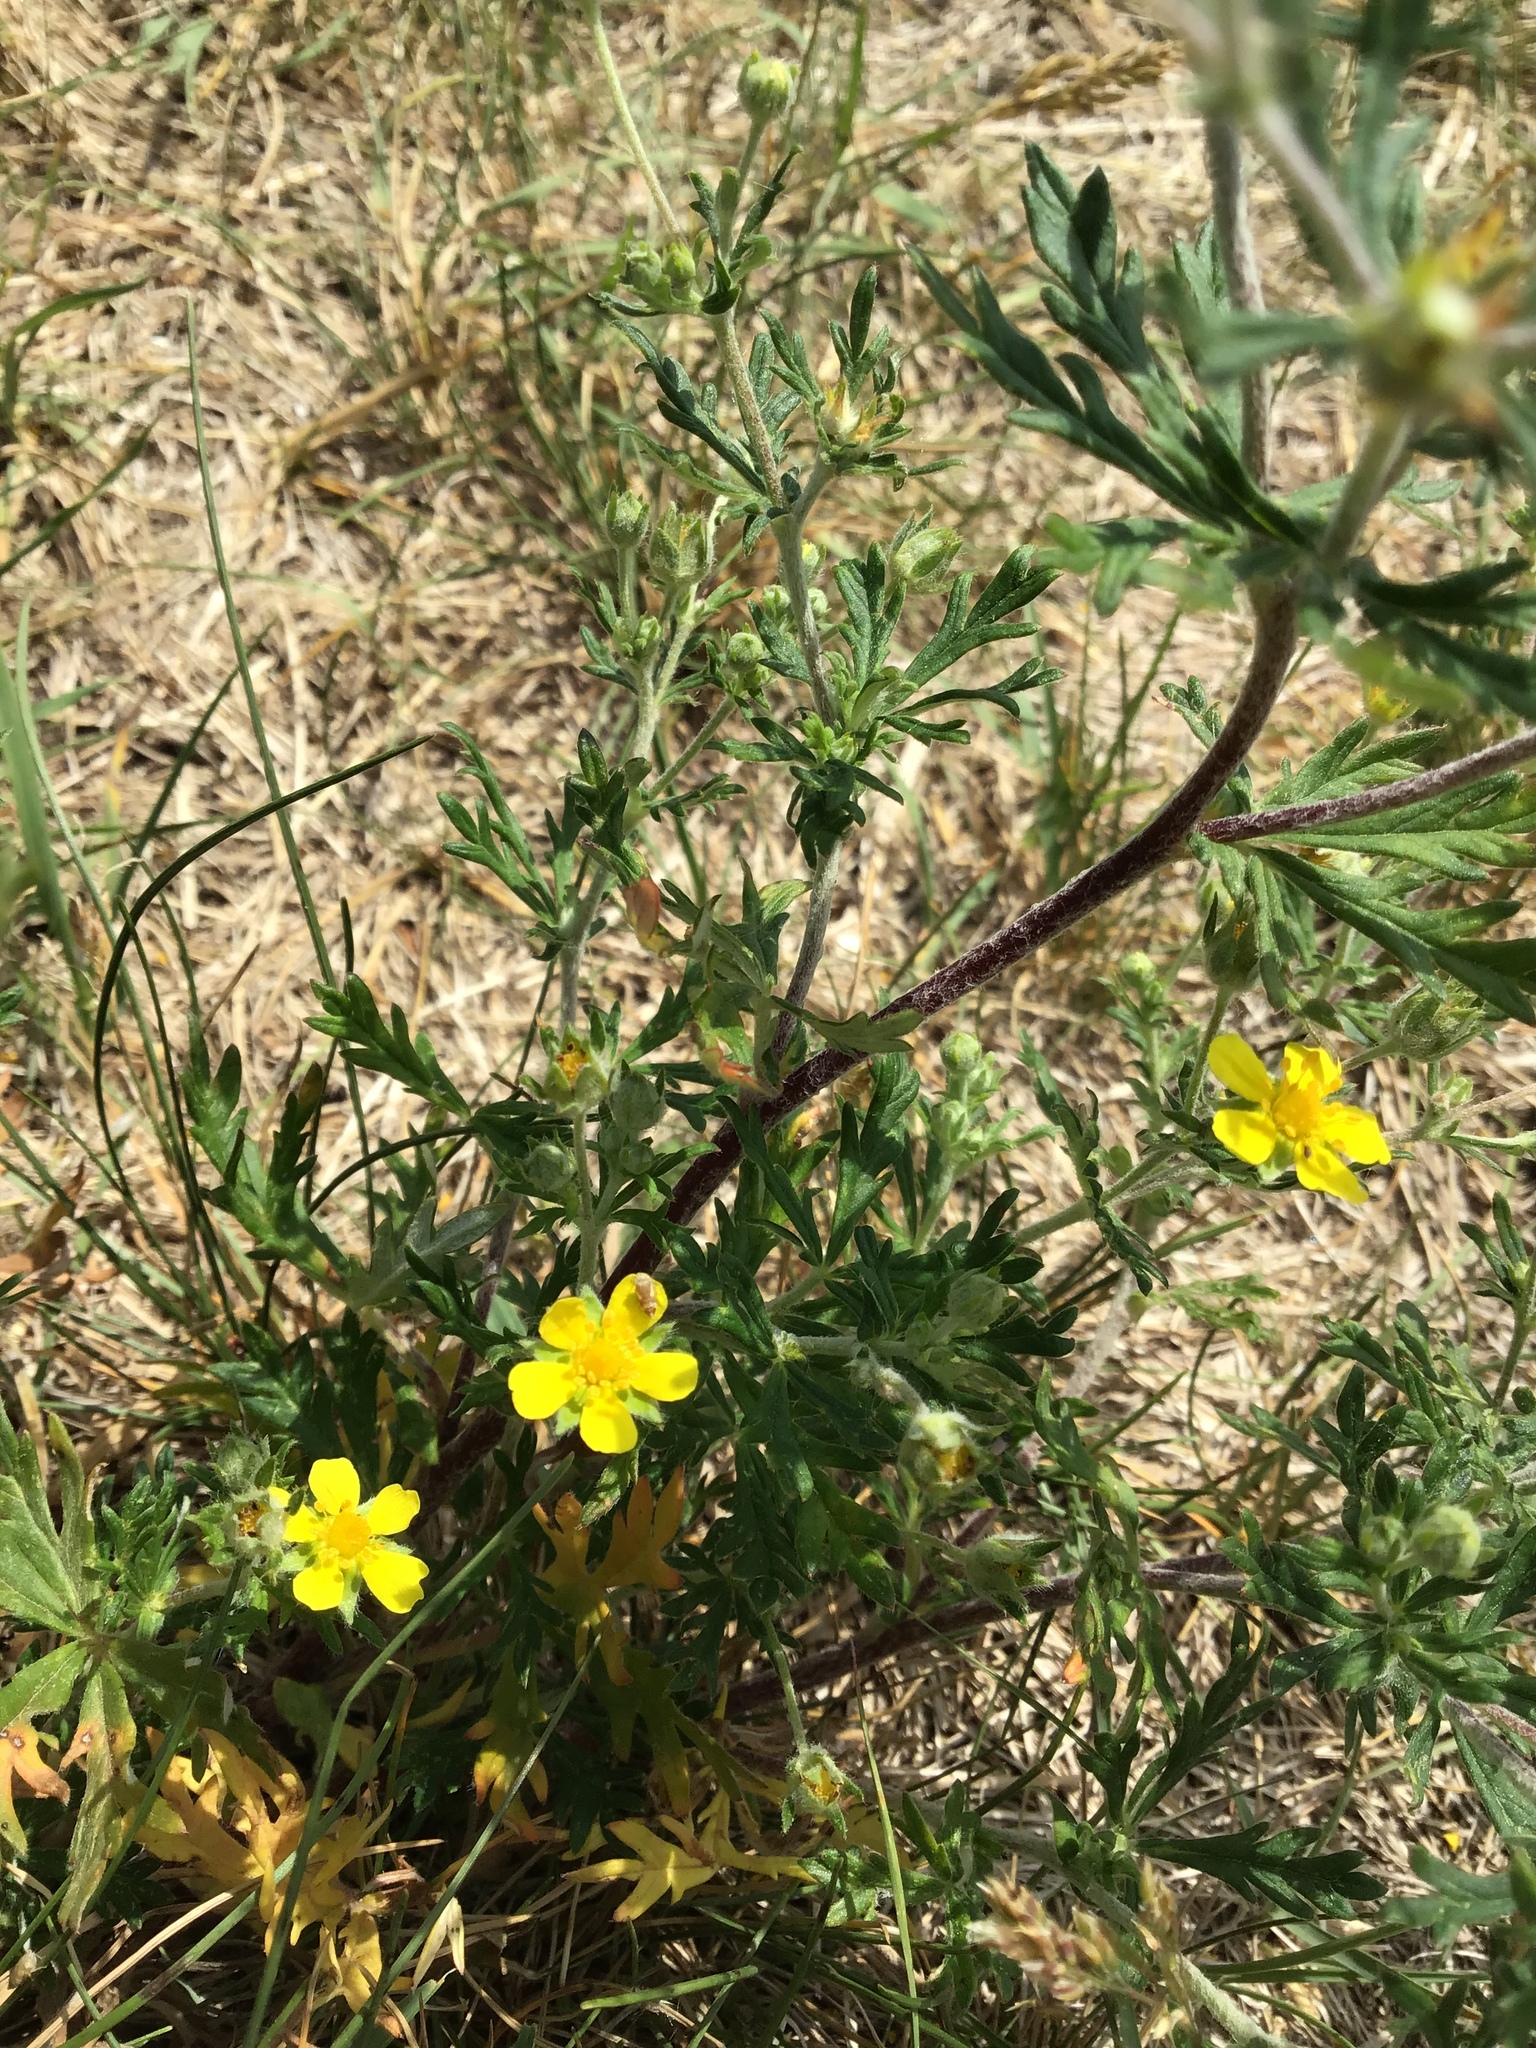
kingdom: Plantae
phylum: Tracheophyta
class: Magnoliopsida
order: Rosales
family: Rosaceae
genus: Potentilla
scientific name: Potentilla argentea
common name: Hoary cinquefoil
